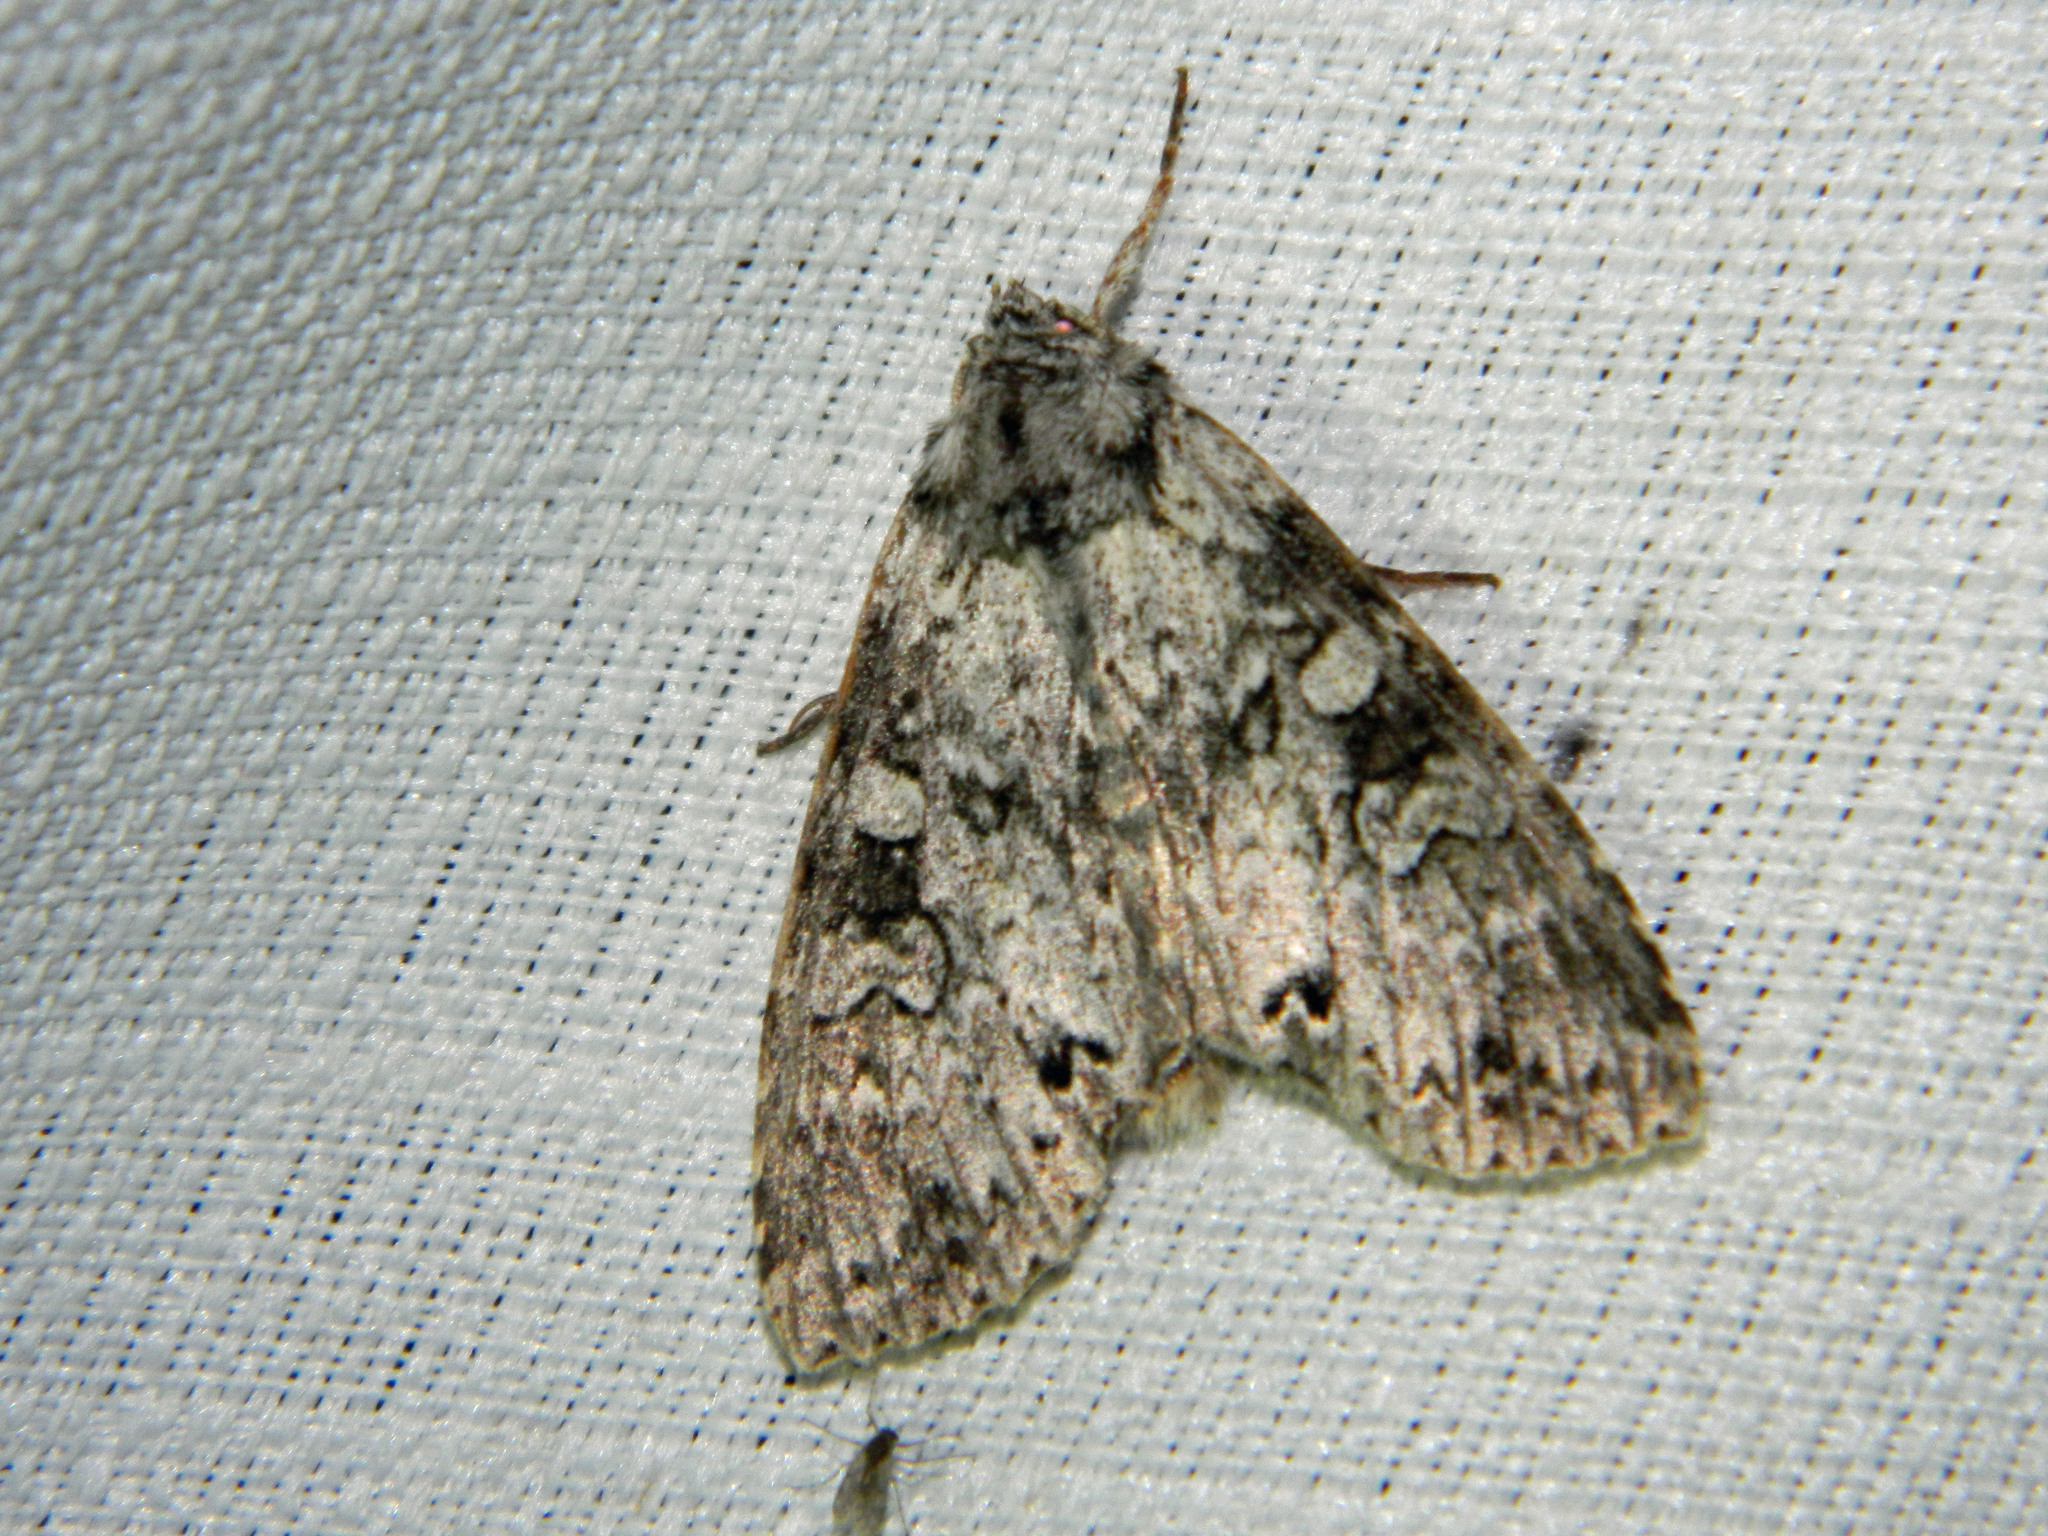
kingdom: Animalia
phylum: Arthropoda
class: Insecta
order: Lepidoptera
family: Noctuidae
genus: Polia
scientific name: Polia nimbosa
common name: Stormy arches
